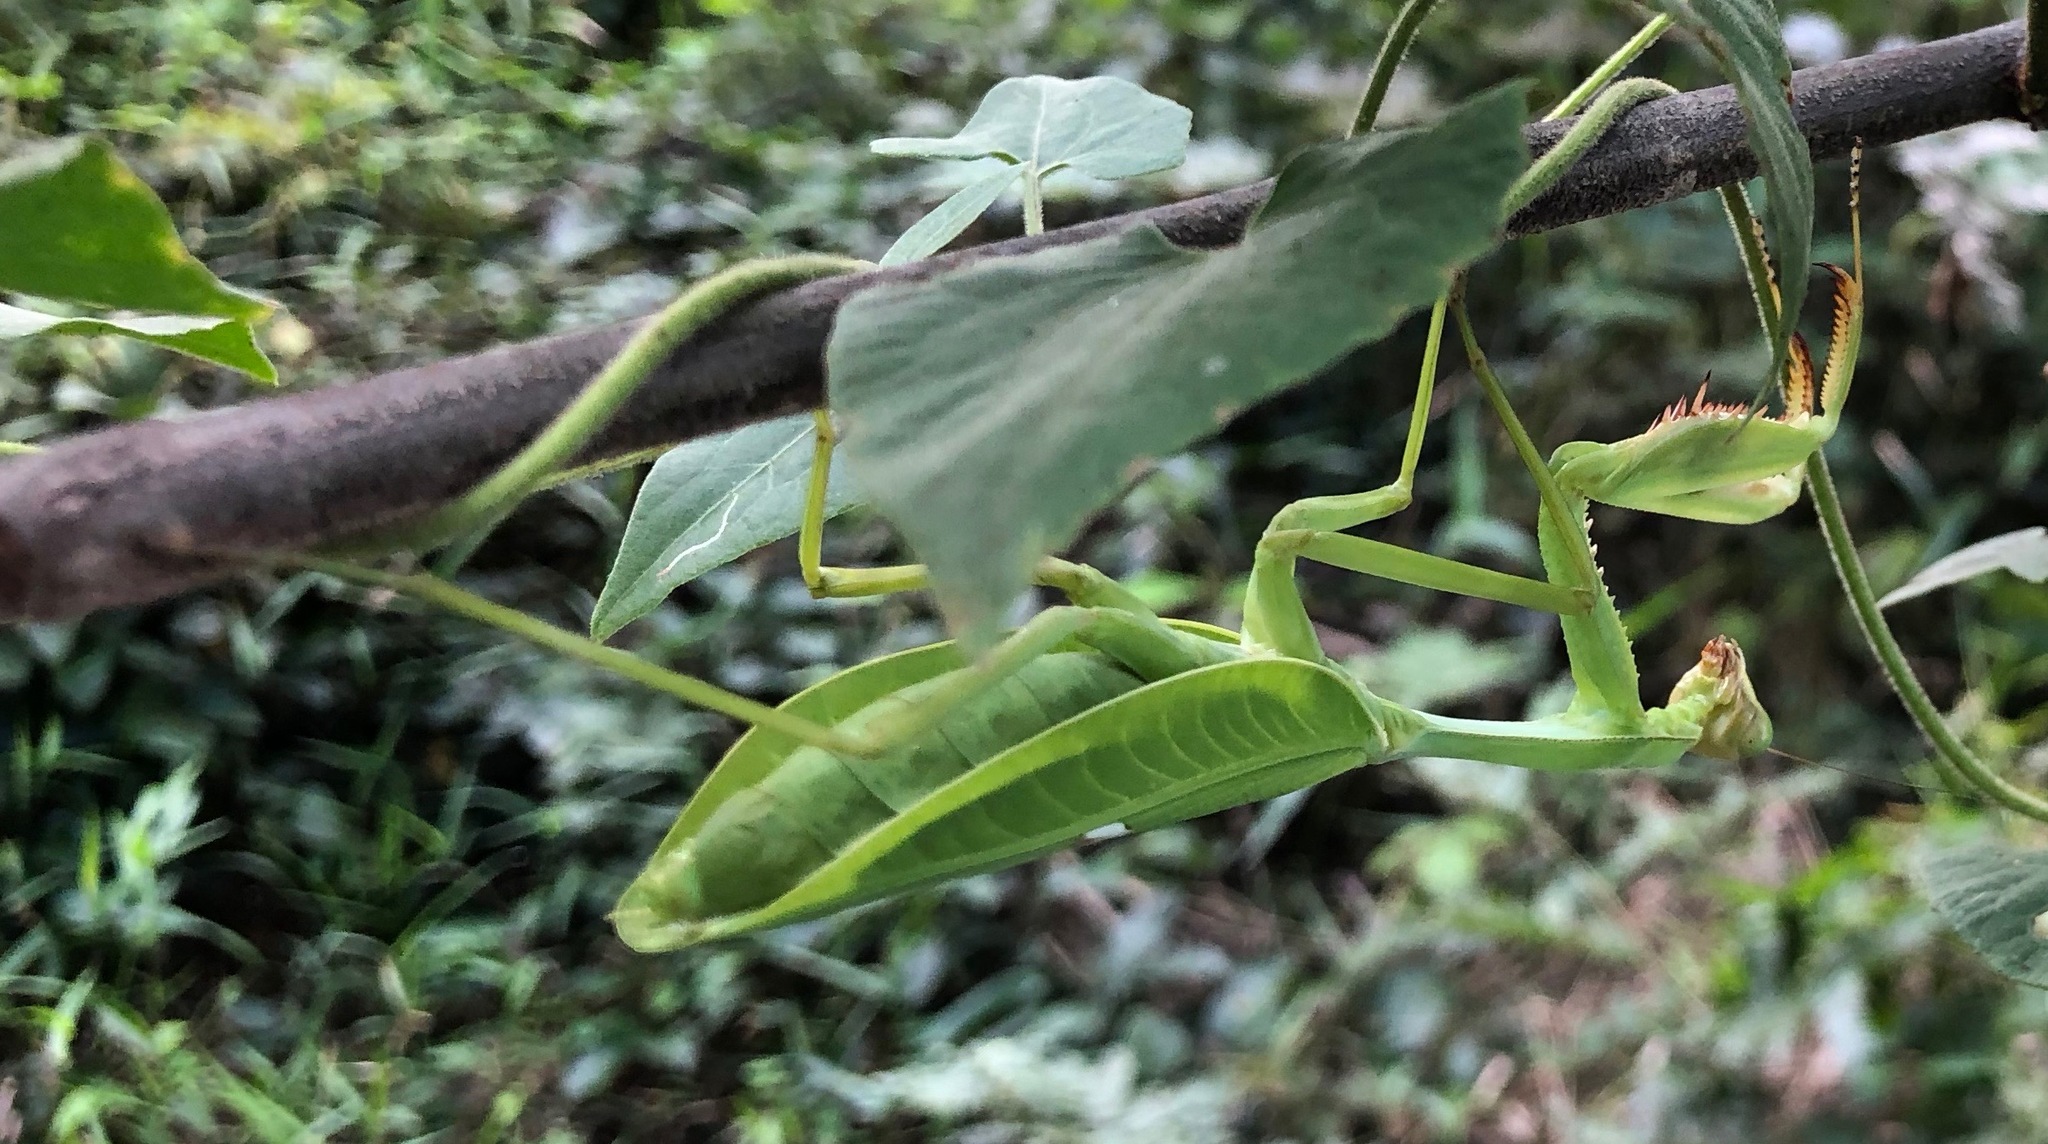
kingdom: Animalia
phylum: Arthropoda
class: Insecta
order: Mantodea
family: Mantidae
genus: Stagmatoptera
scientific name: Stagmatoptera femoralis
